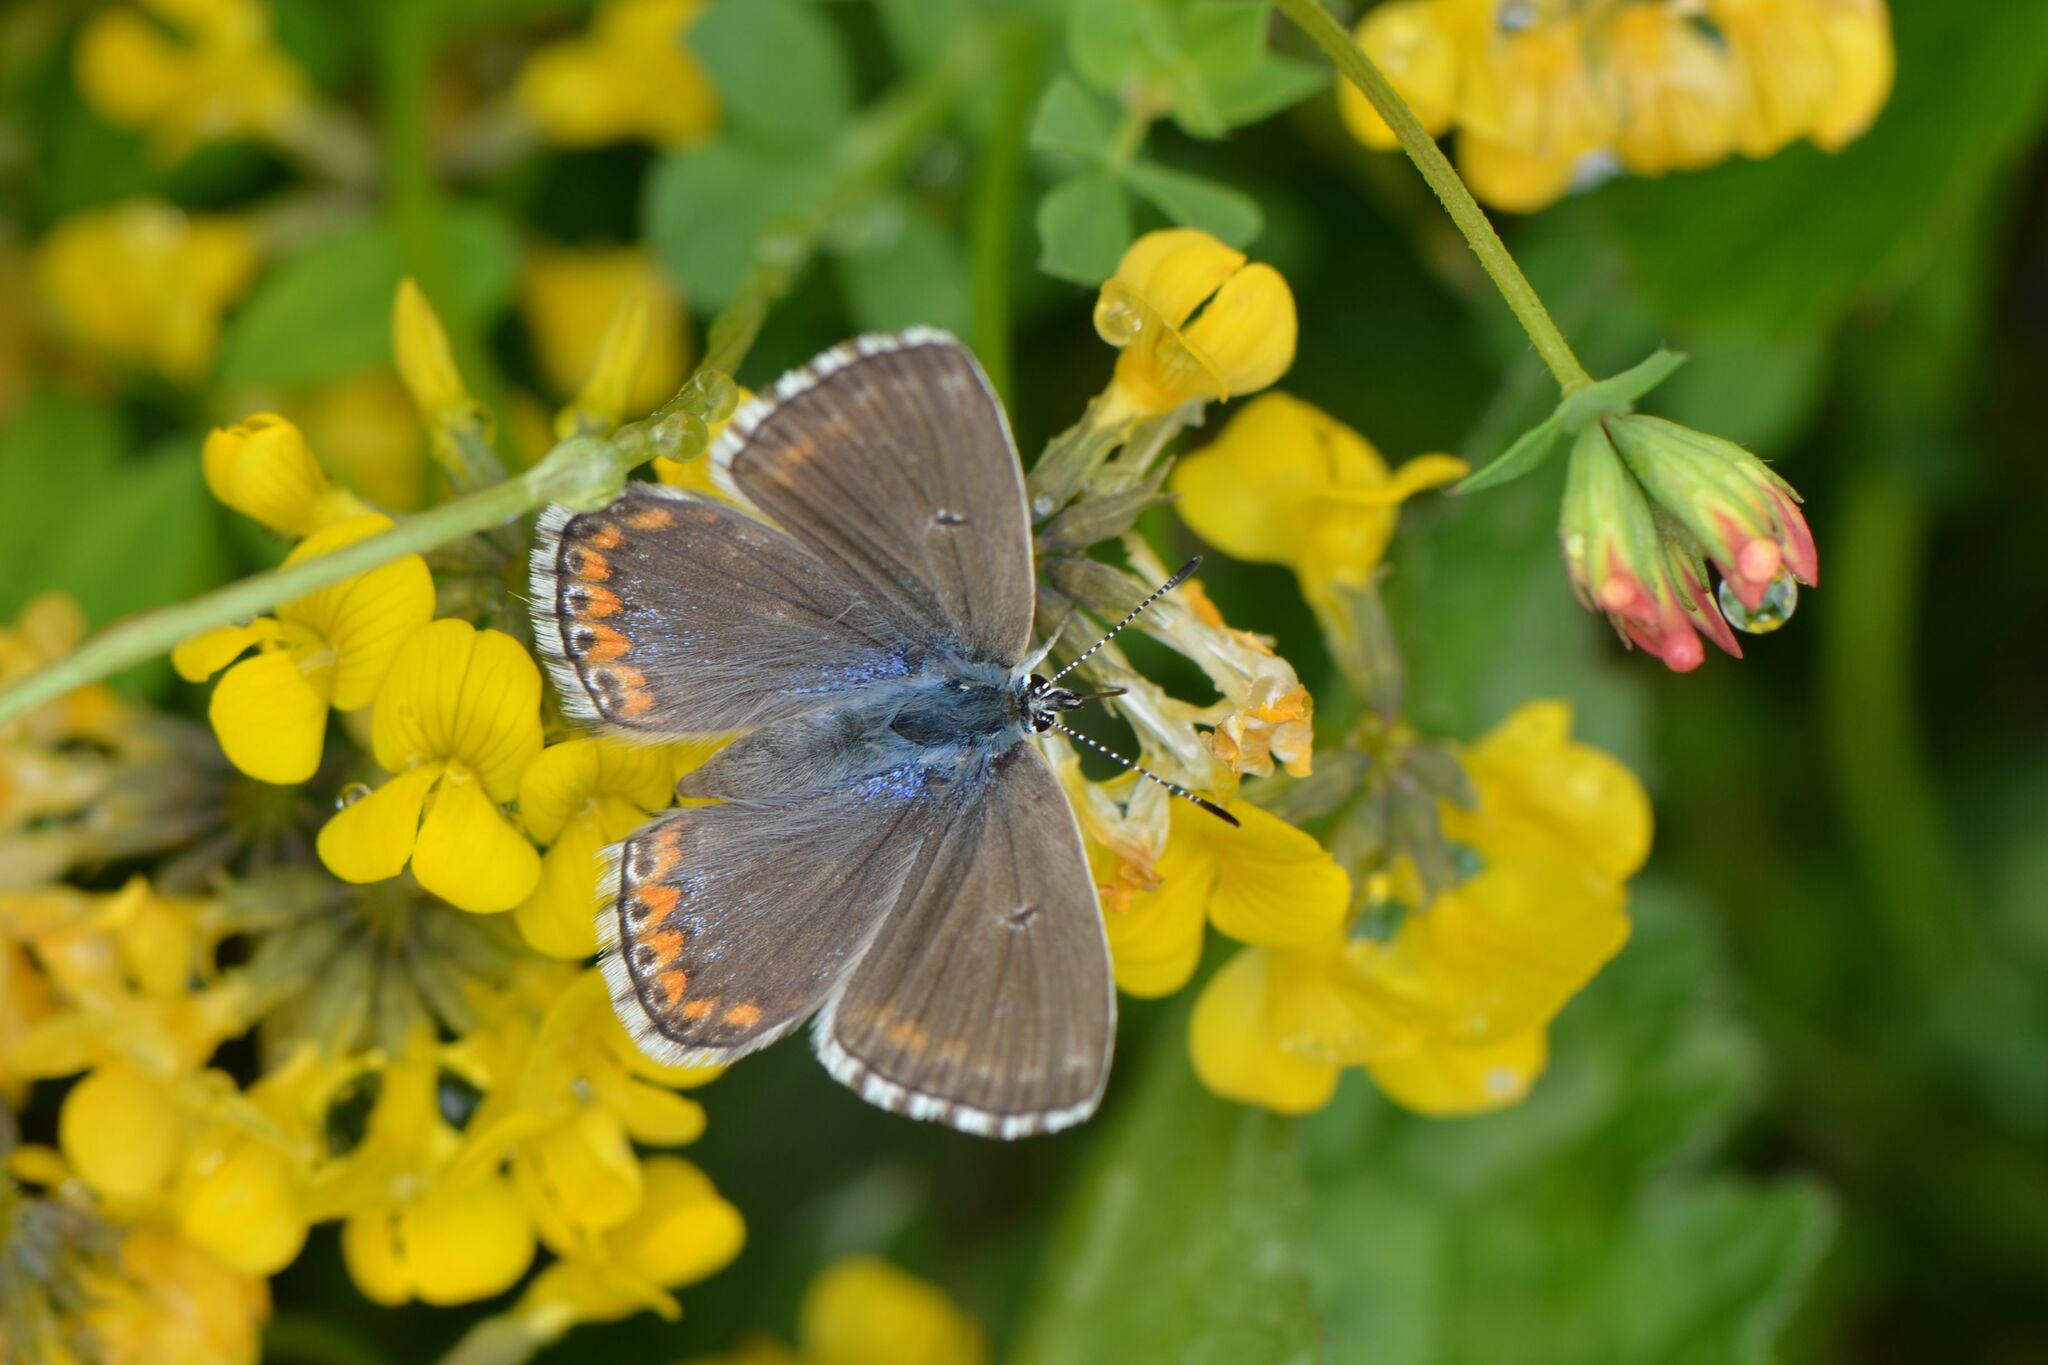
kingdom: Animalia
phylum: Arthropoda
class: Insecta
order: Lepidoptera
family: Lycaenidae
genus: Lysandra
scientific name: Lysandra bellargus
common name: Adonis blue
